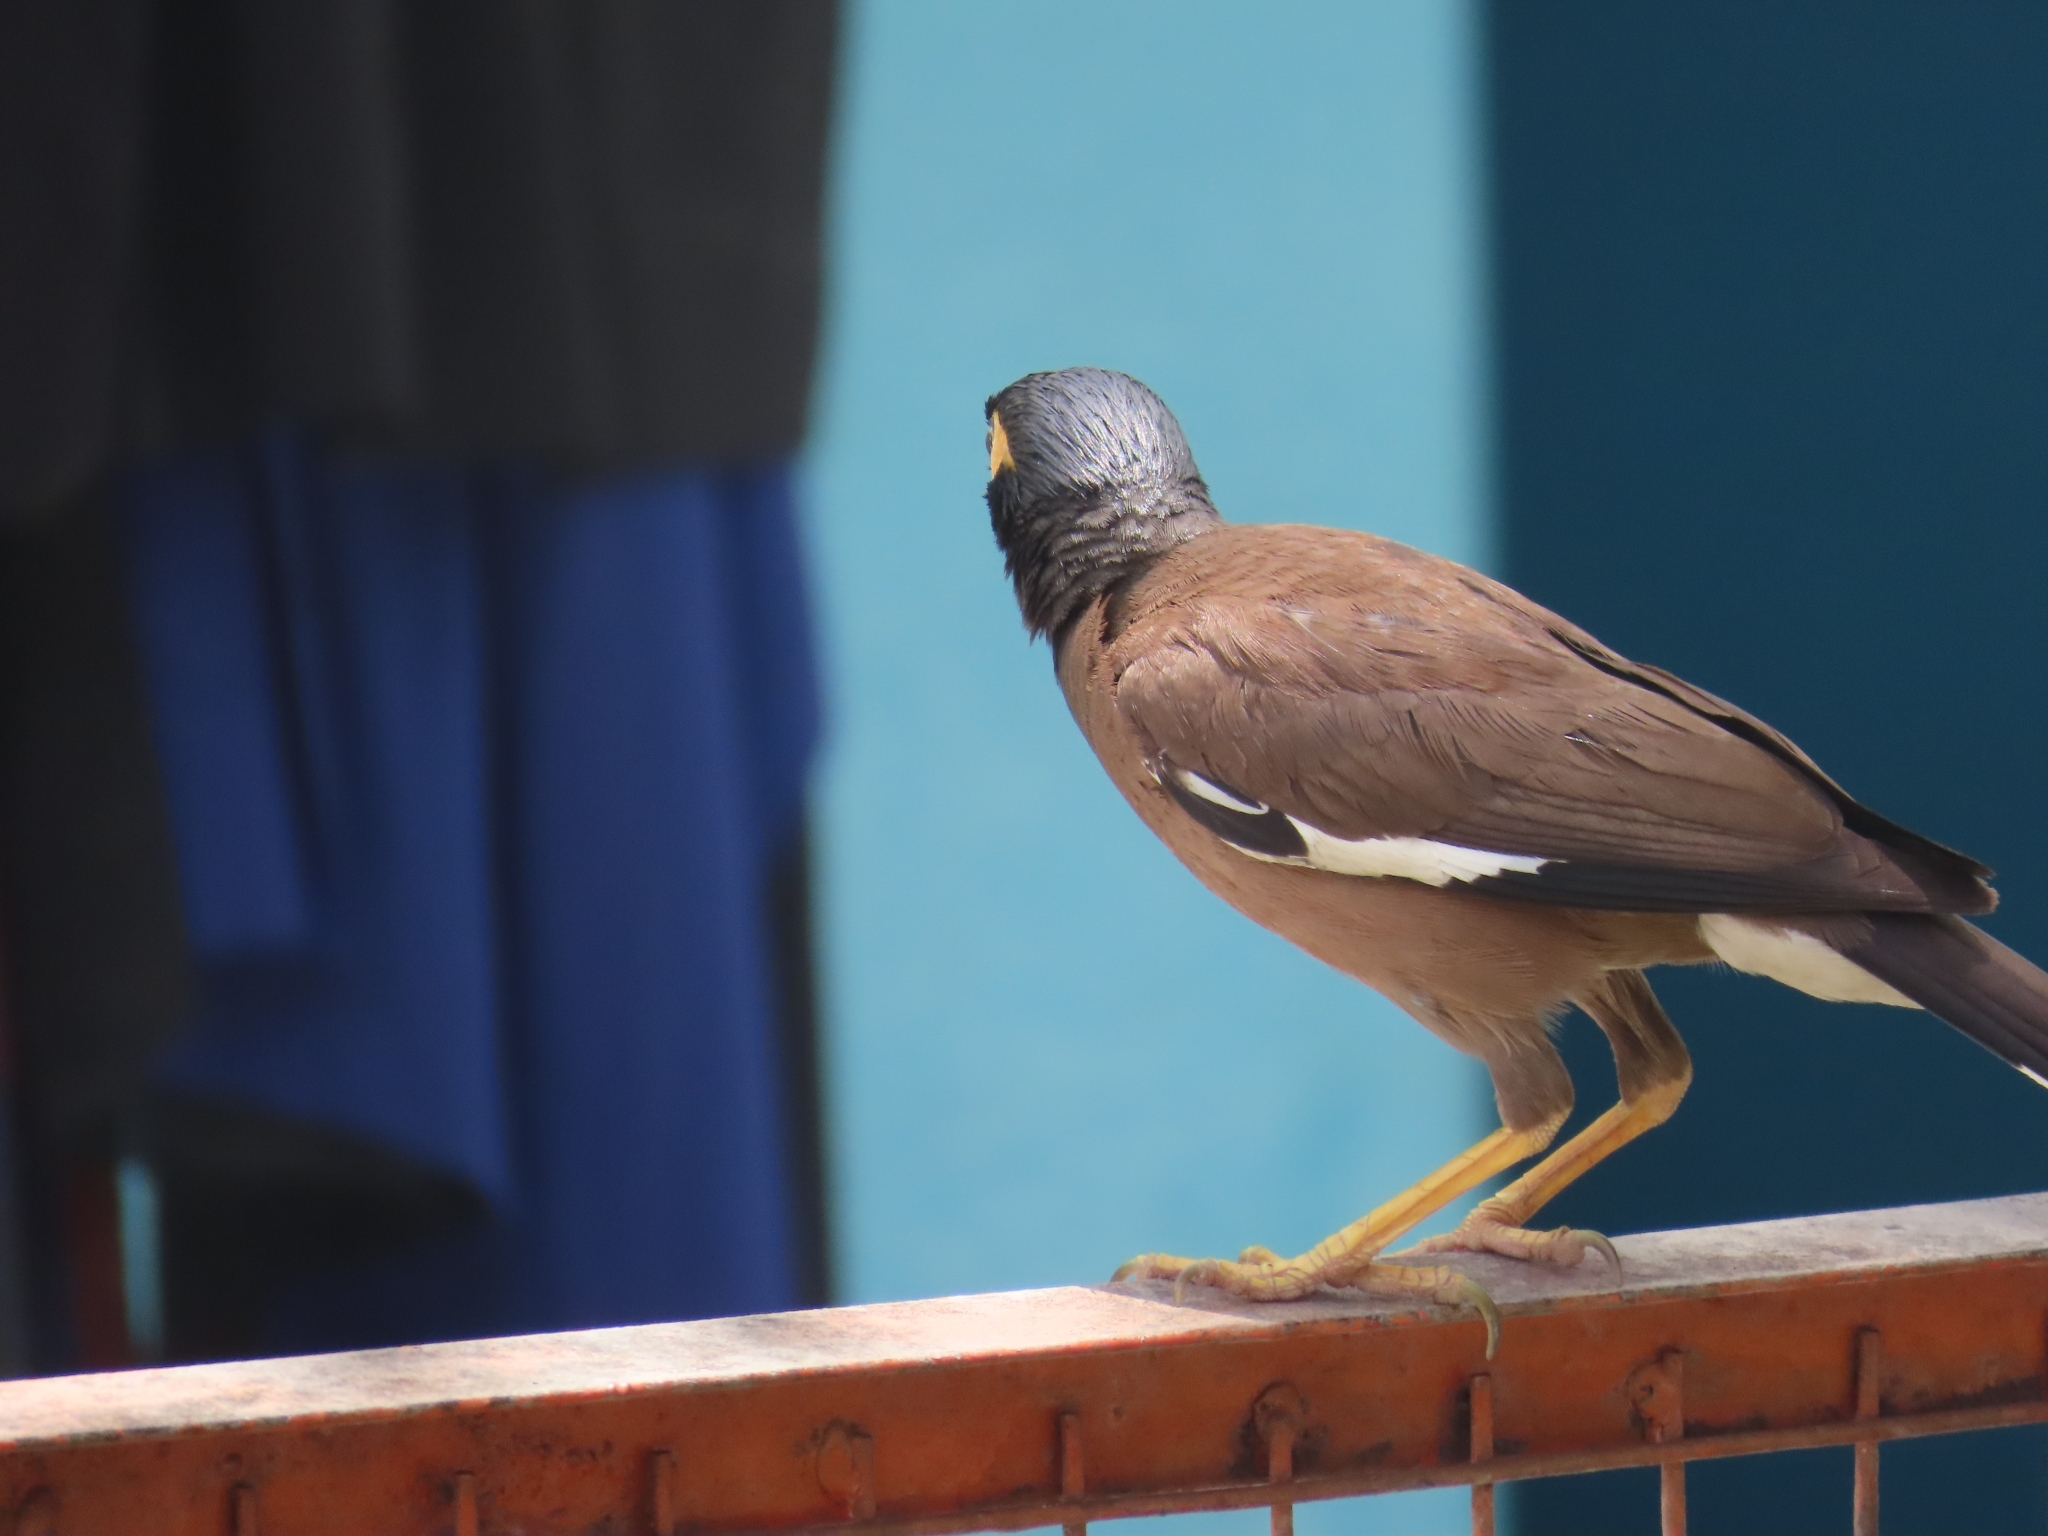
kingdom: Animalia
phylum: Chordata
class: Aves
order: Passeriformes
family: Sturnidae
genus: Acridotheres
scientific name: Acridotheres tristis
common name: Common myna
